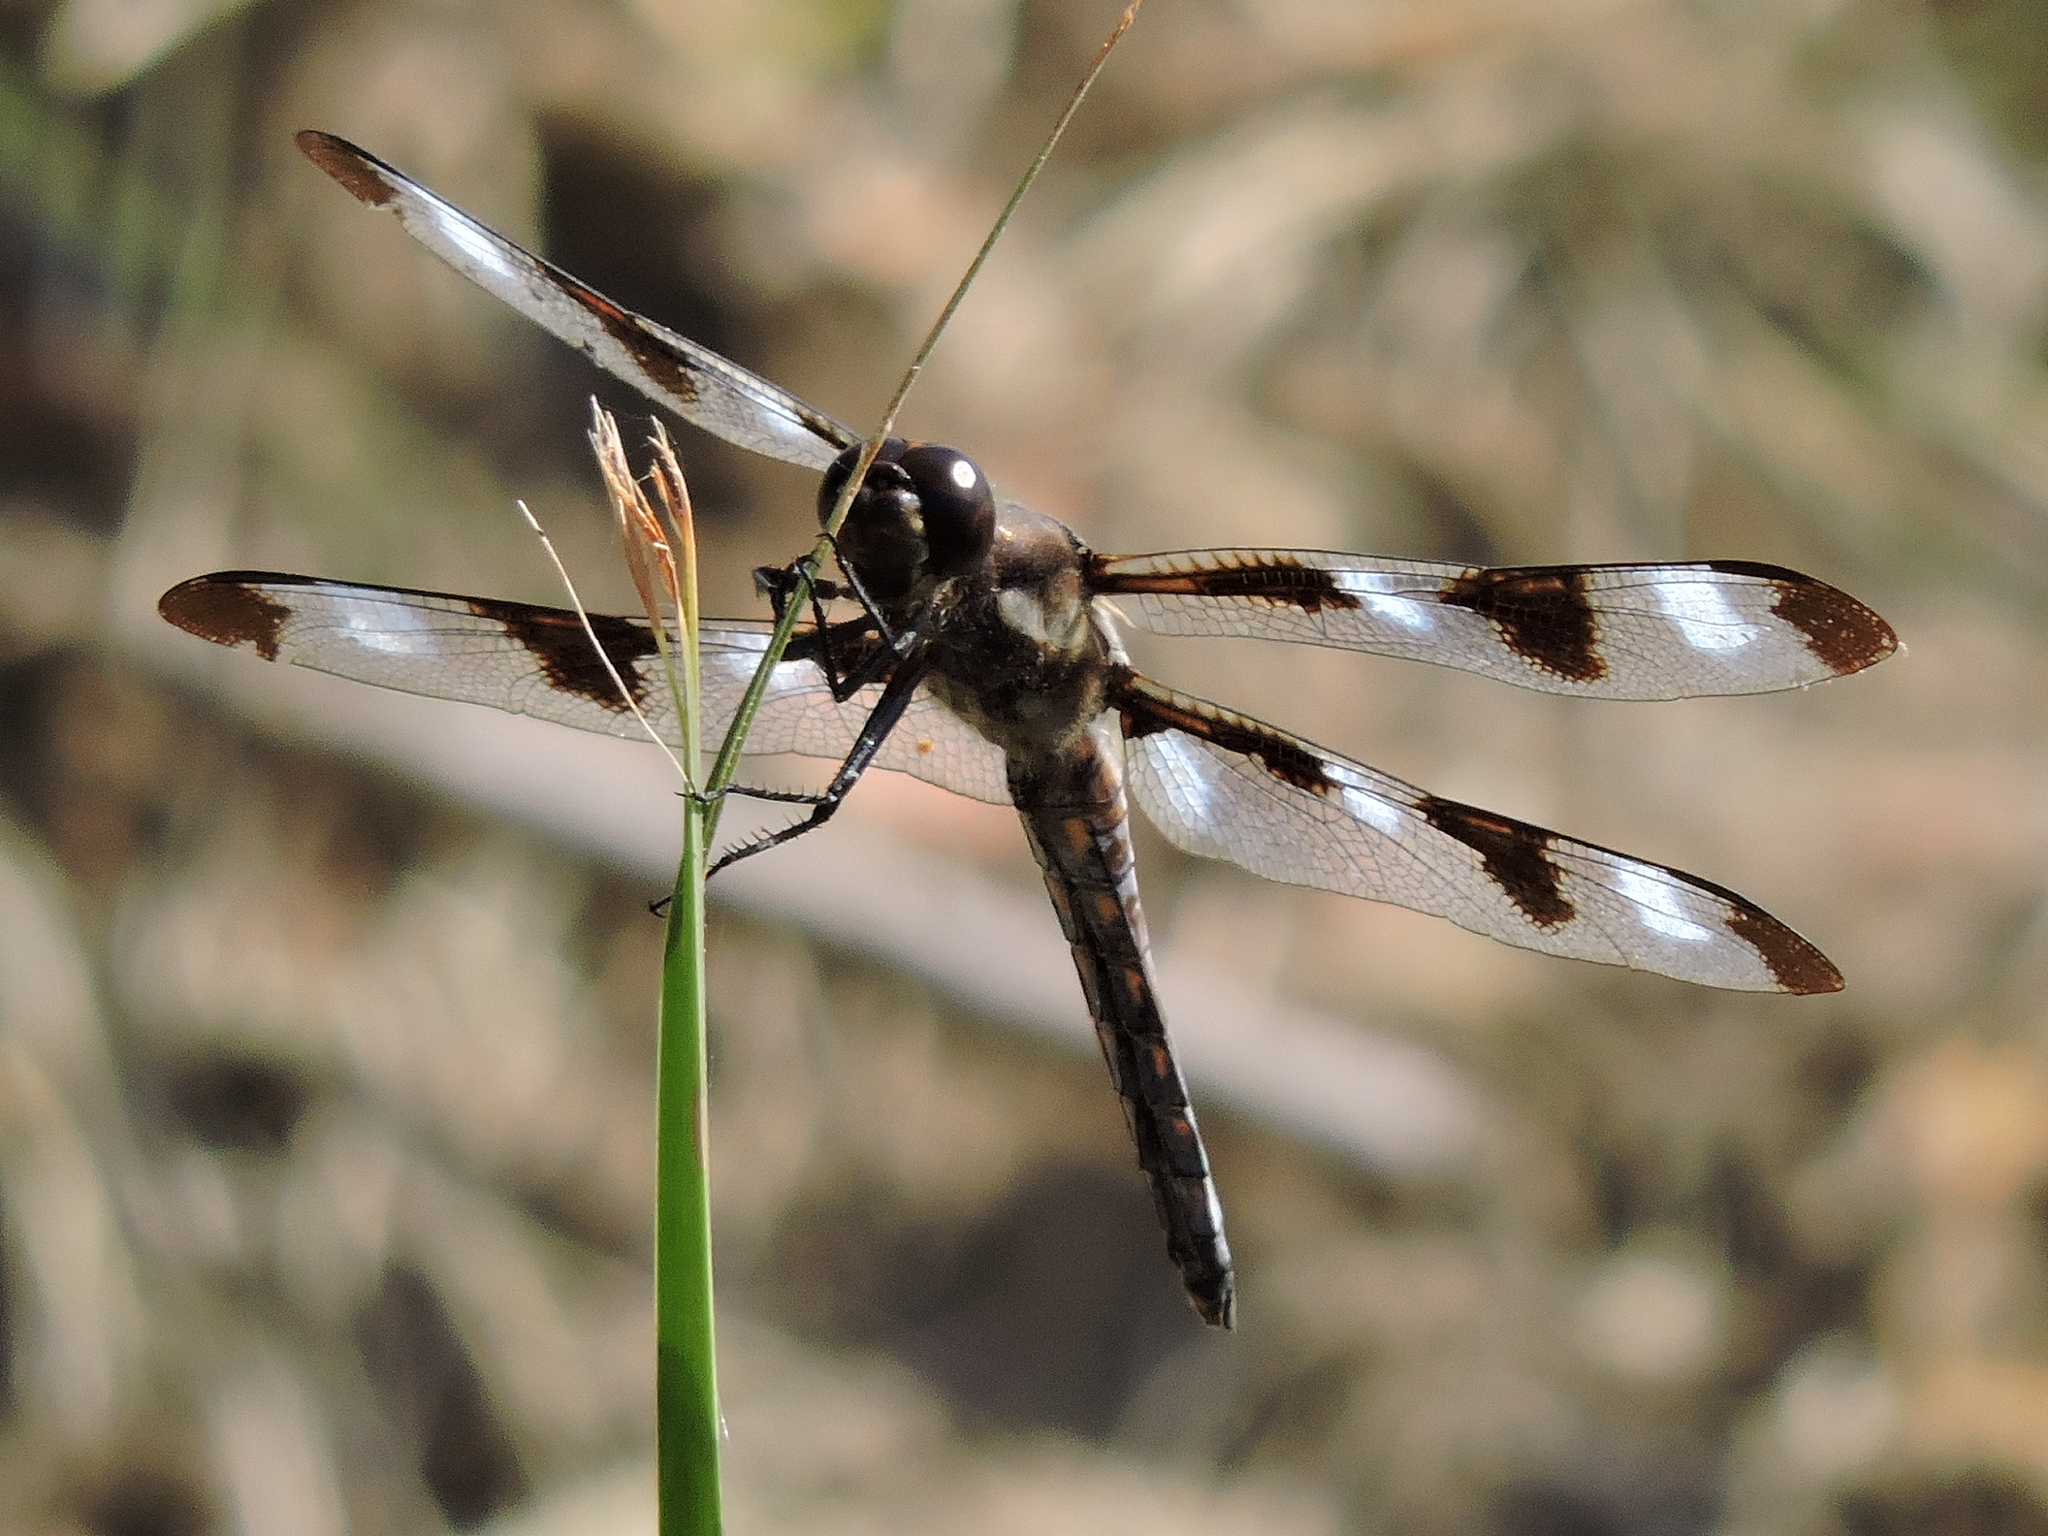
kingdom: Animalia
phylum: Arthropoda
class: Insecta
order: Odonata
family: Libellulidae
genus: Libellula
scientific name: Libellula pulchella
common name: Twelve-spotted skimmer
